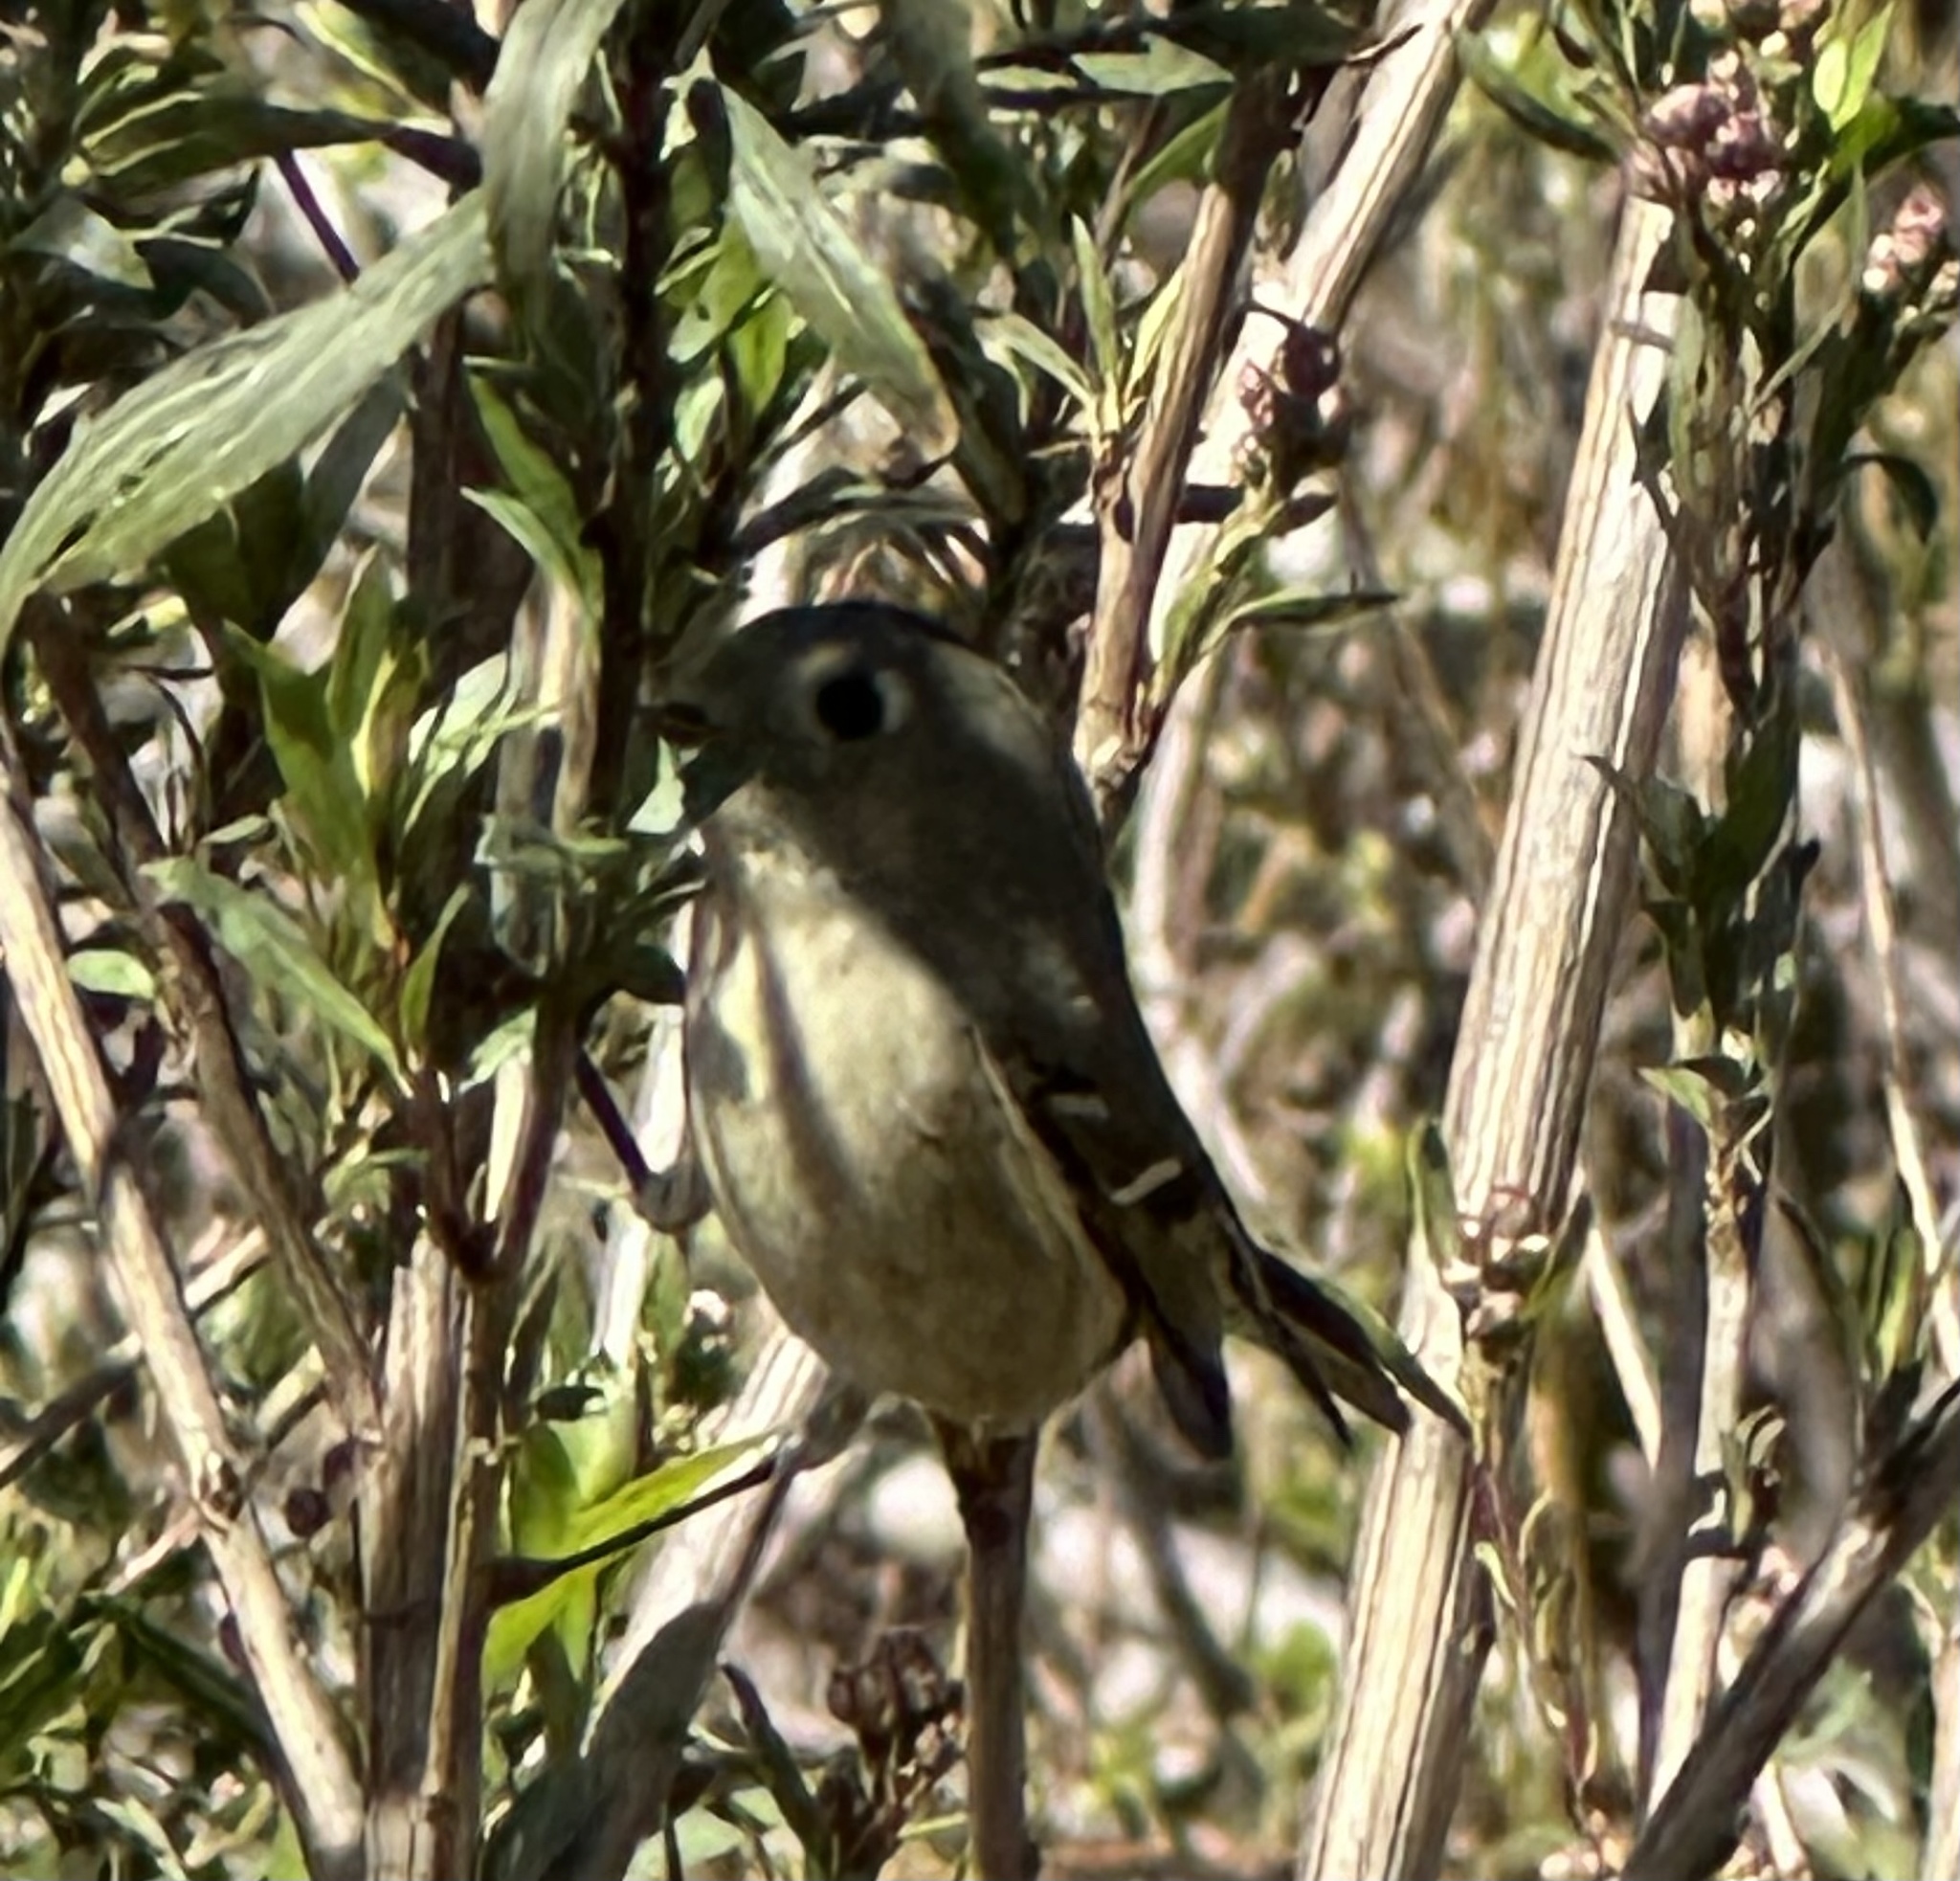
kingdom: Animalia
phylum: Chordata
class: Aves
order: Passeriformes
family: Regulidae
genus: Regulus
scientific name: Regulus calendula
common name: Ruby-crowned kinglet
